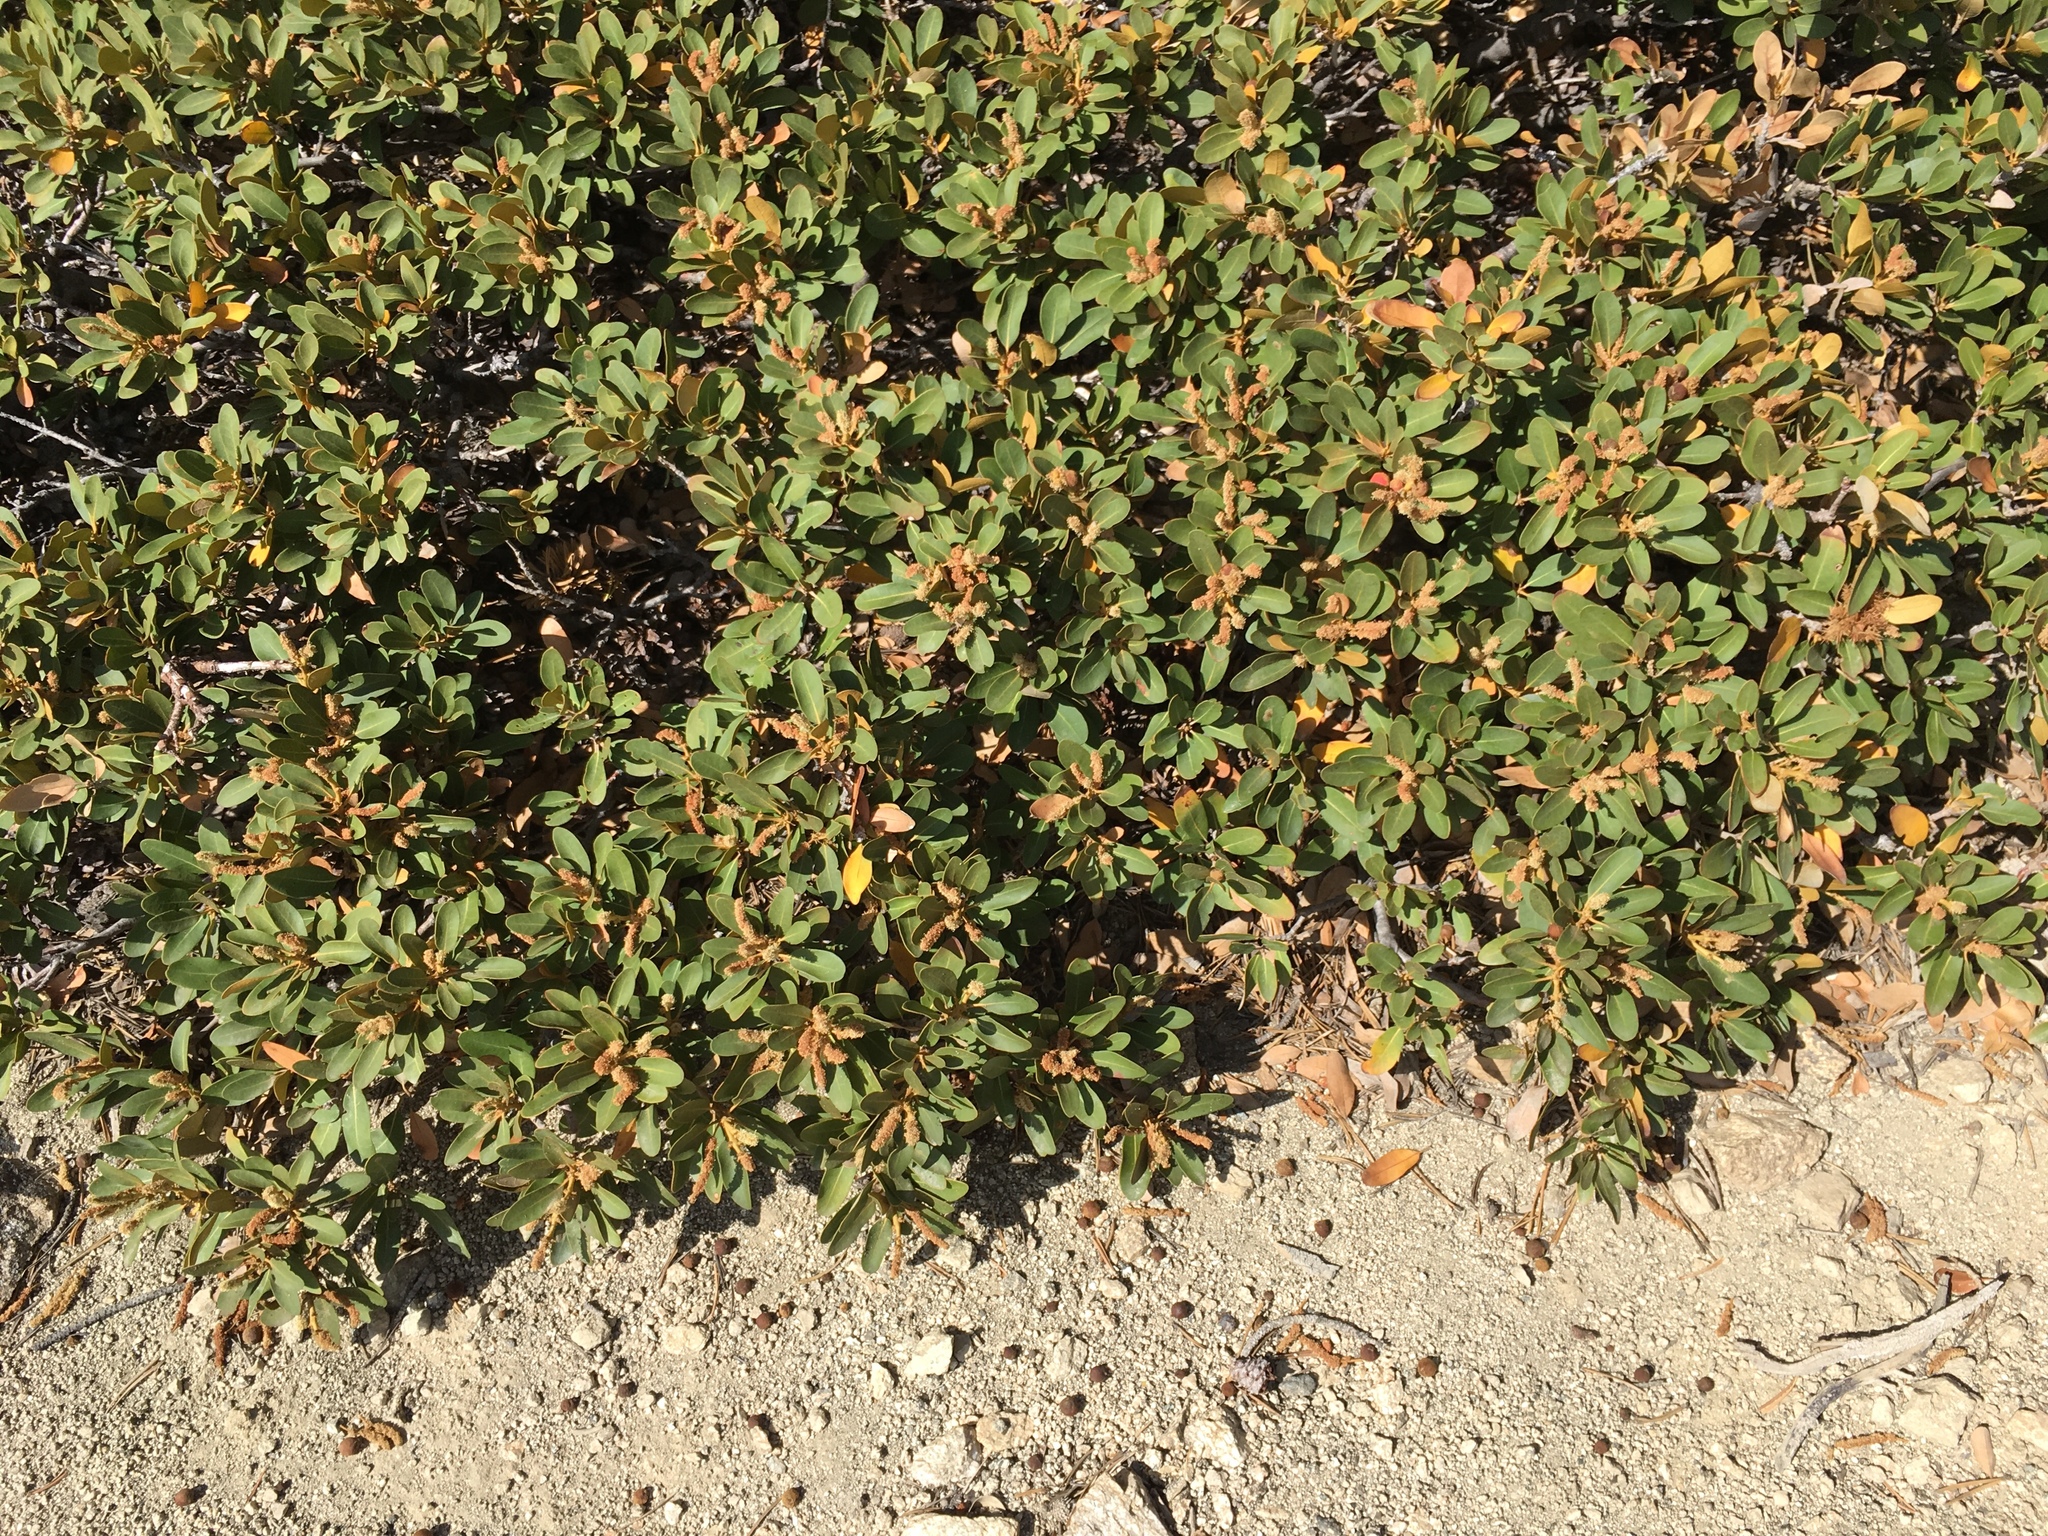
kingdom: Plantae
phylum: Tracheophyta
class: Magnoliopsida
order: Fagales
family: Fagaceae
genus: Chrysolepis
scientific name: Chrysolepis sempervirens
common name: Bush chinquapin
